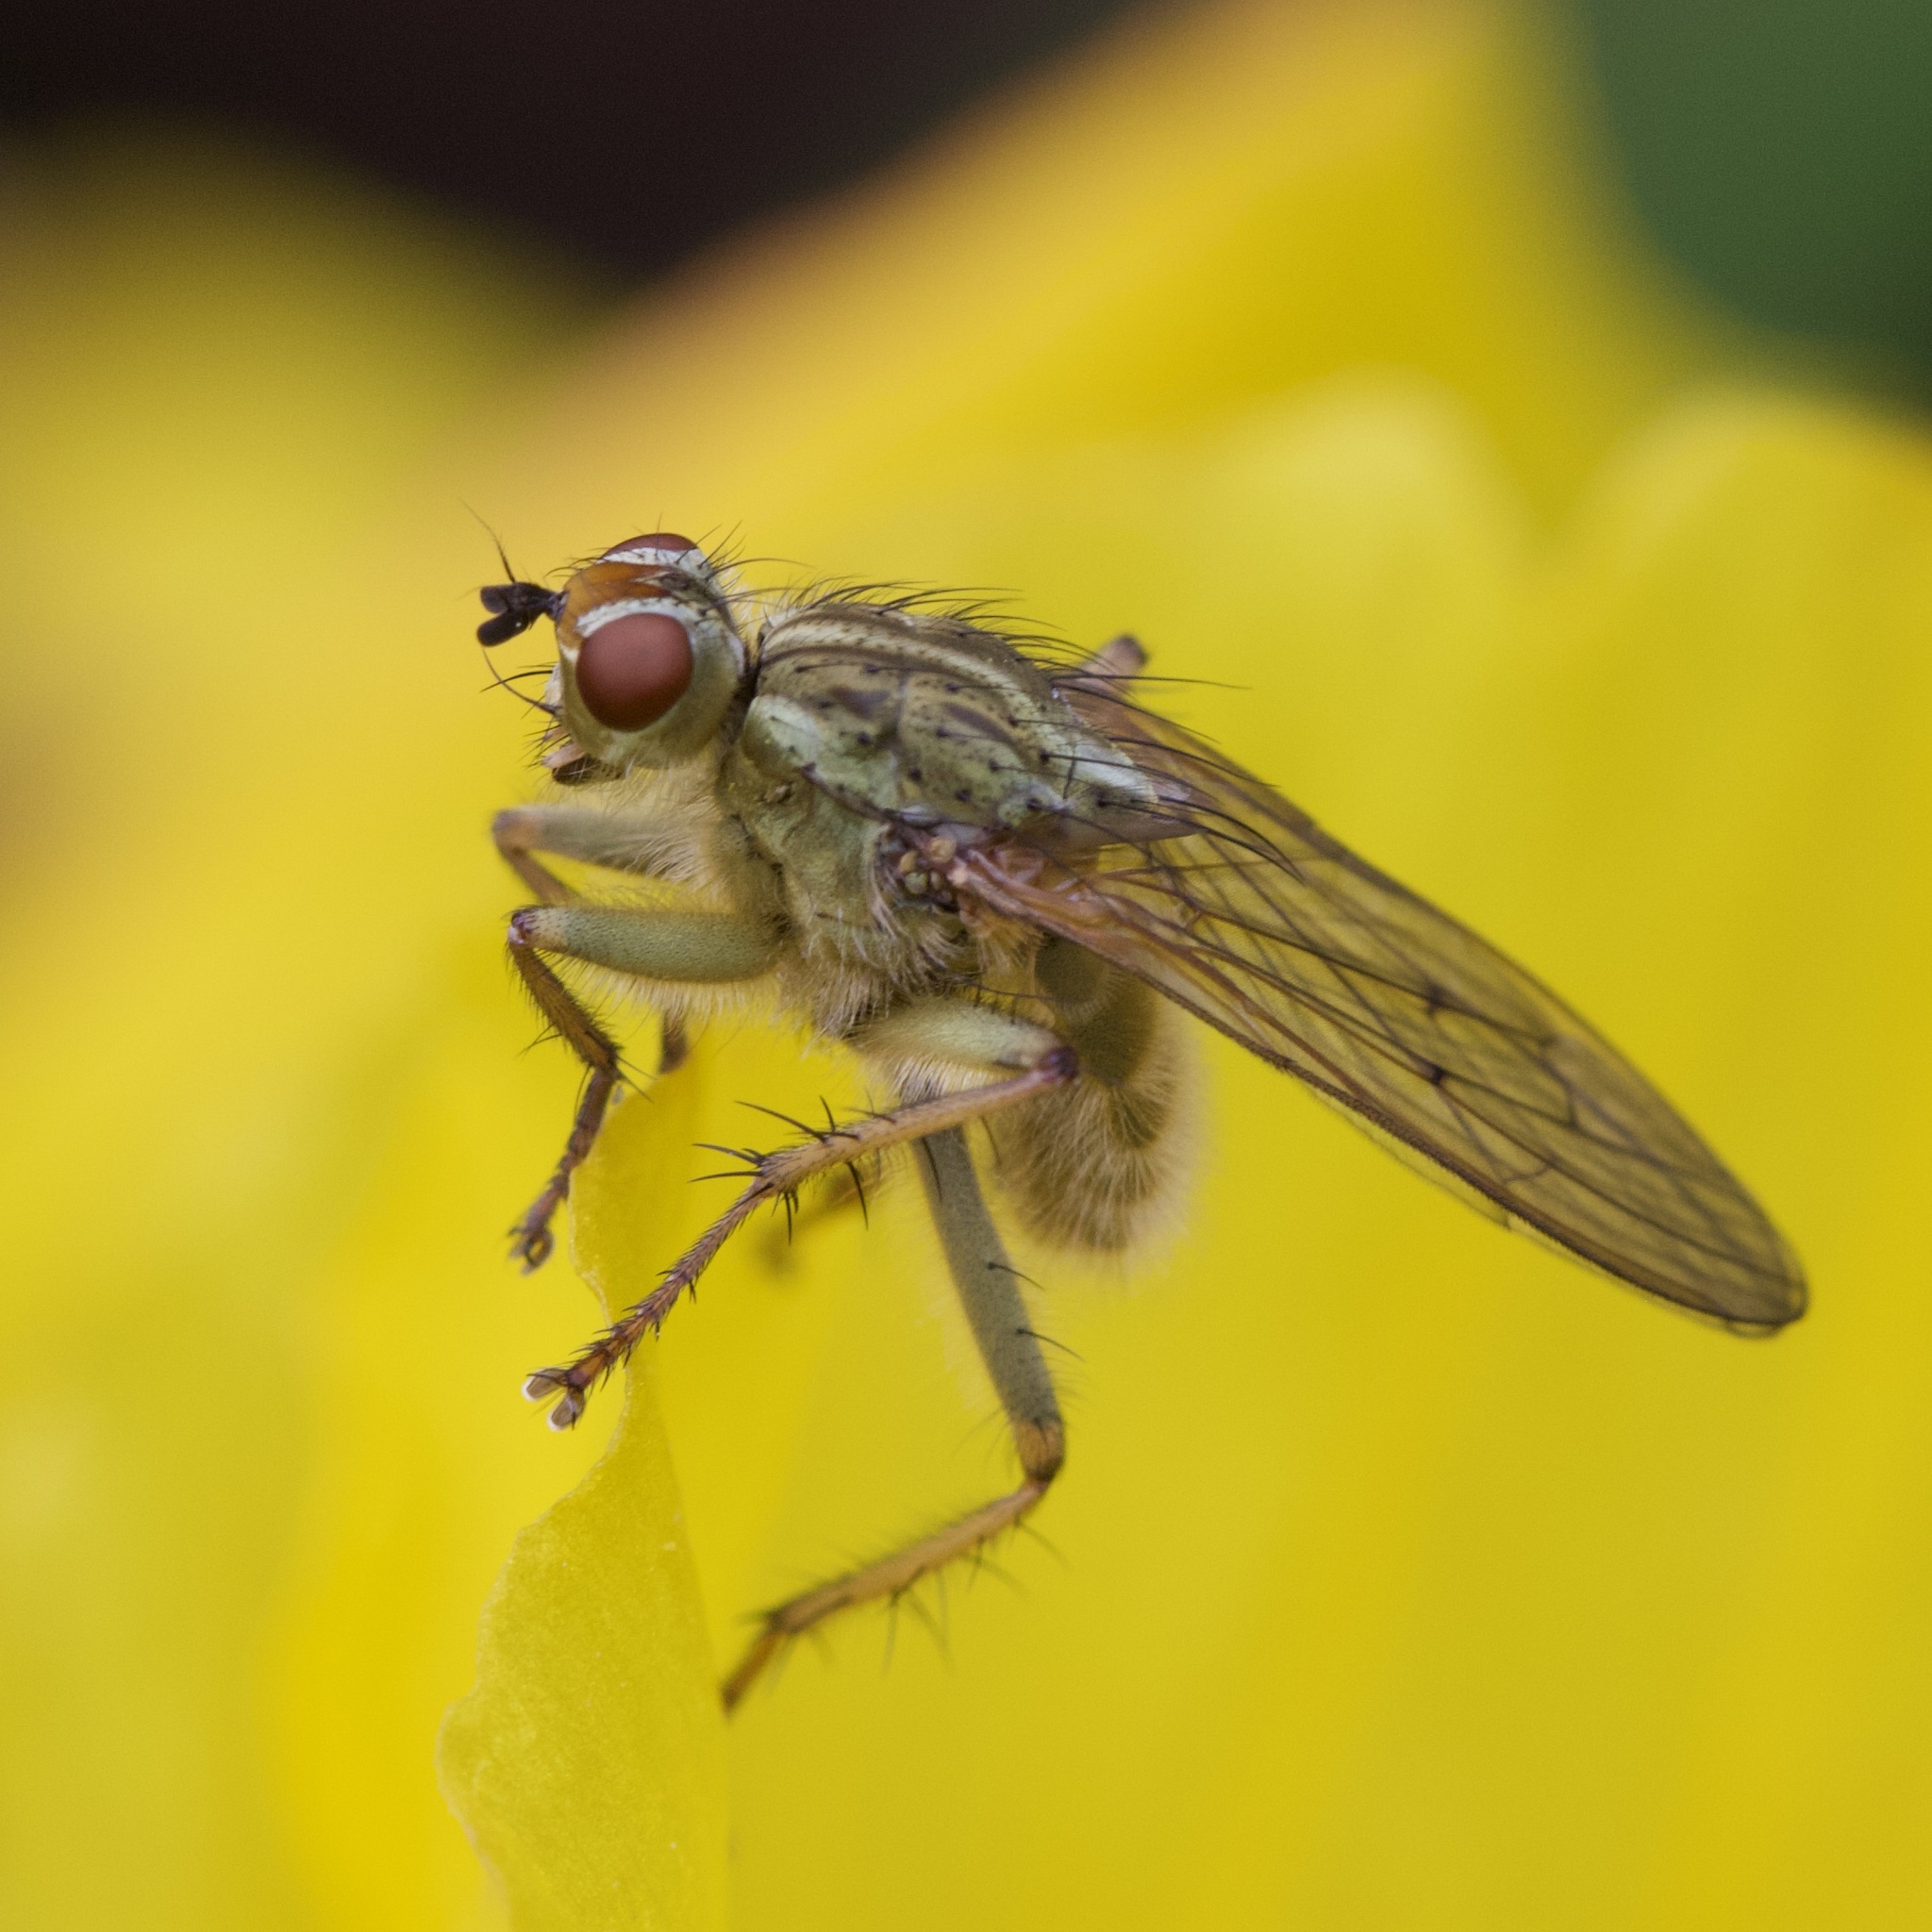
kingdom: Animalia
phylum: Arthropoda
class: Insecta
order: Diptera
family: Scathophagidae
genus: Scathophaga
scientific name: Scathophaga stercoraria
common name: Yellow dung fly
